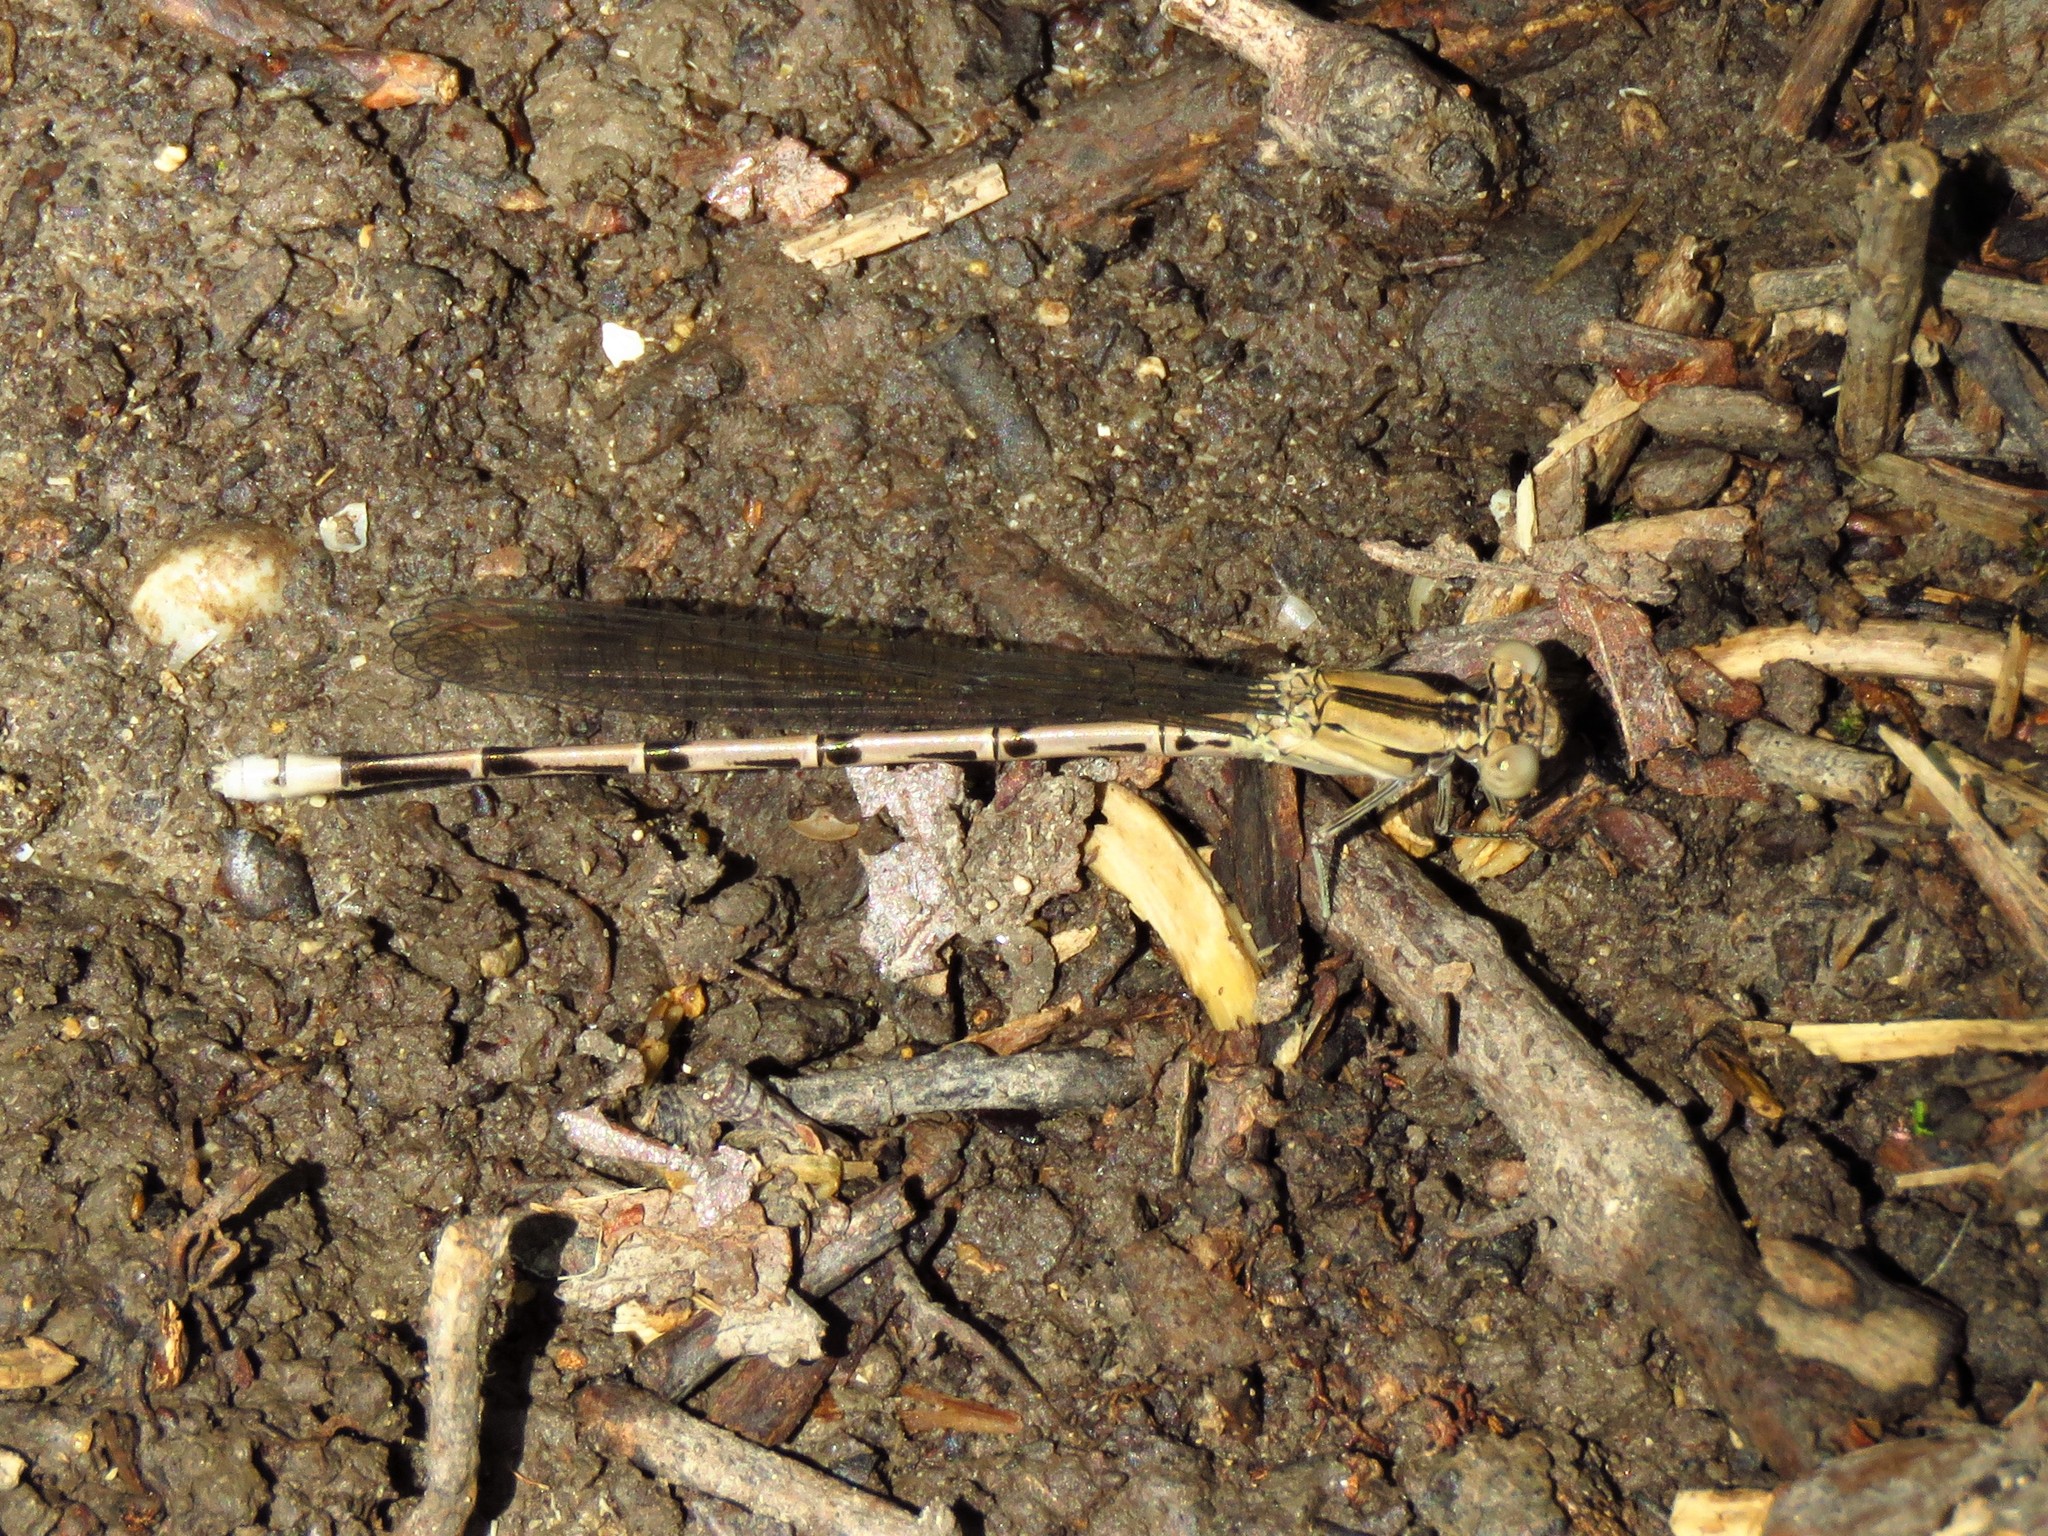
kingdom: Animalia
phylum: Arthropoda
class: Insecta
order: Odonata
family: Coenagrionidae
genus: Argia
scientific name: Argia funebris
